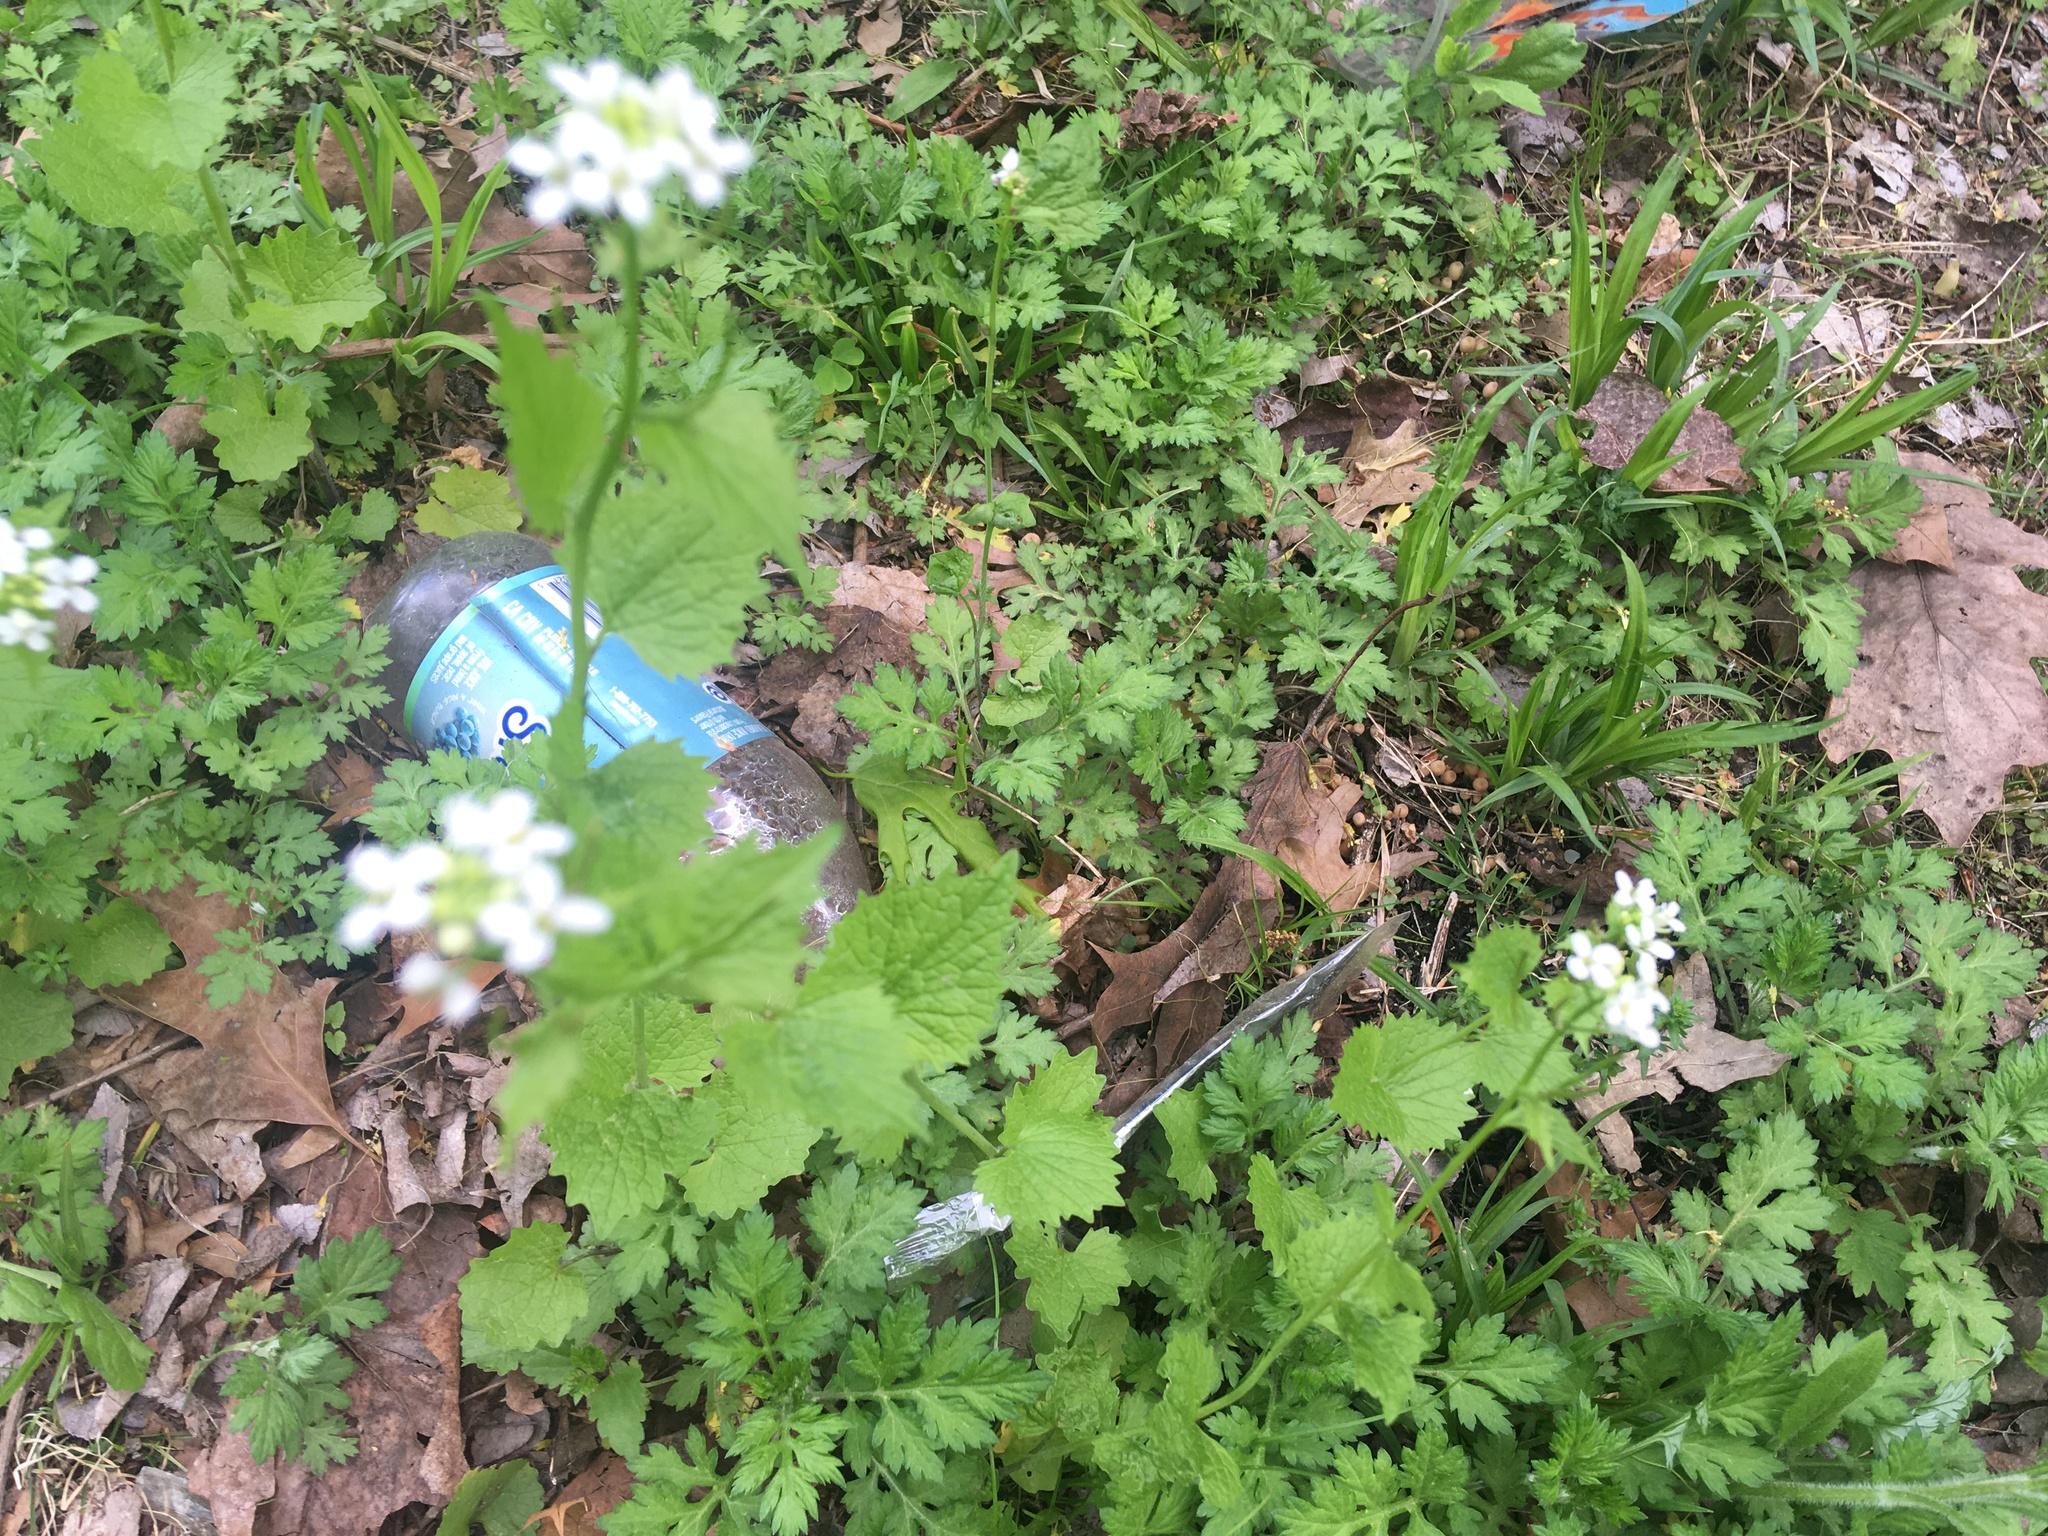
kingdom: Plantae
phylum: Tracheophyta
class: Magnoliopsida
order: Brassicales
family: Brassicaceae
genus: Alliaria
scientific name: Alliaria petiolata
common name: Garlic mustard
